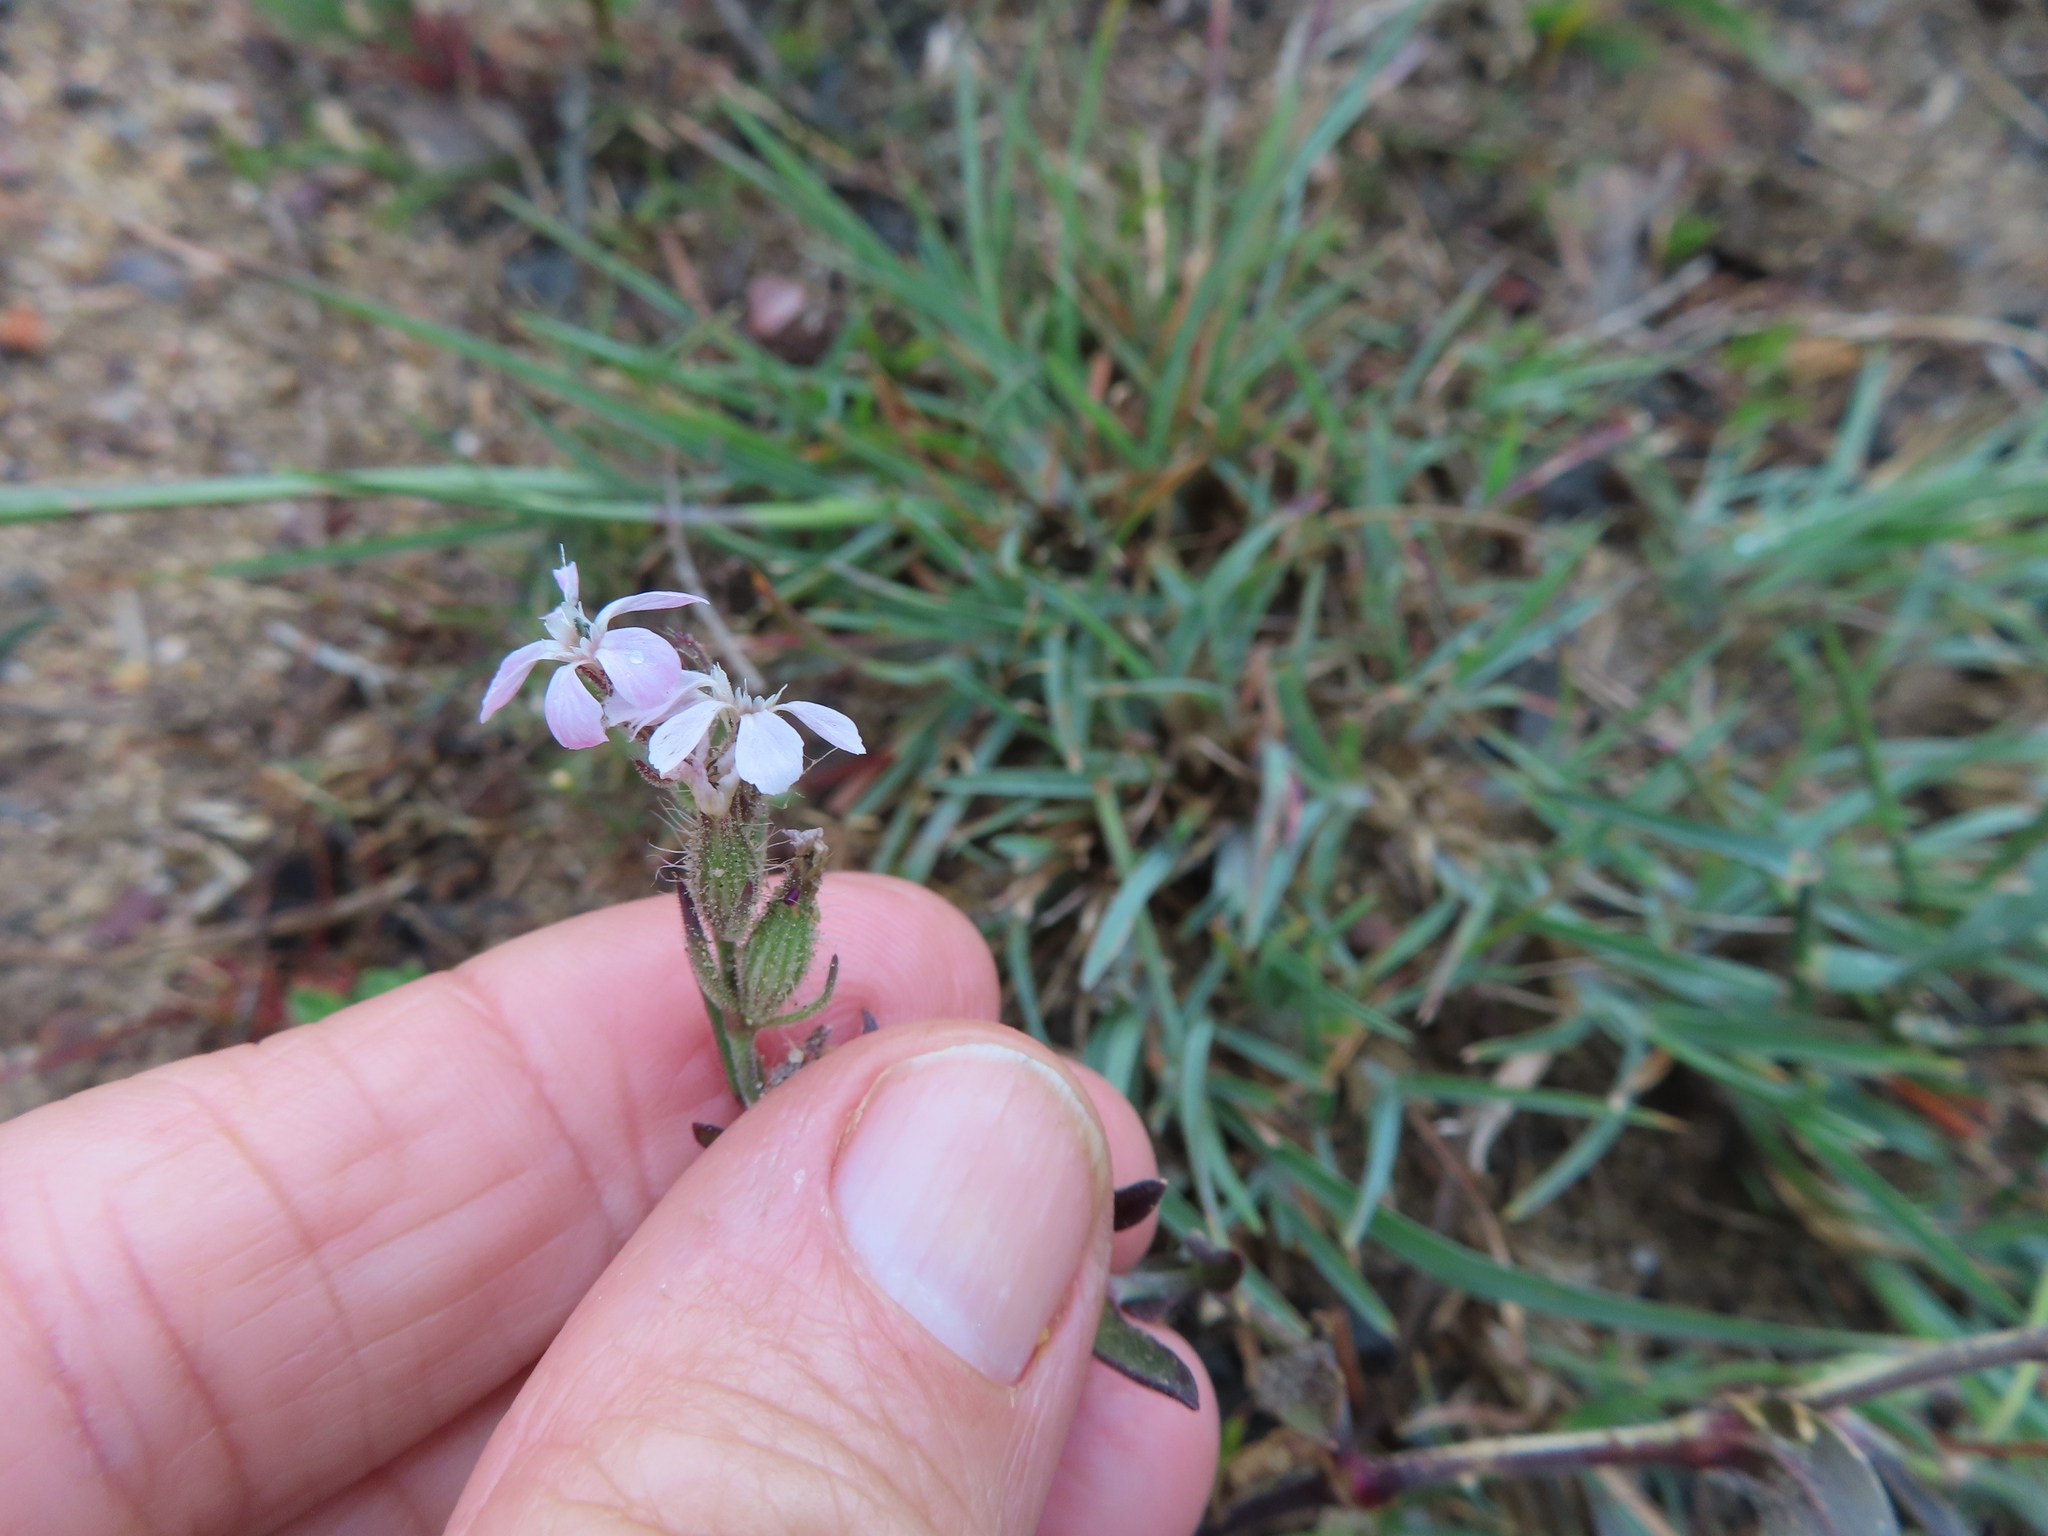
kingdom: Plantae
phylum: Tracheophyta
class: Magnoliopsida
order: Caryophyllales
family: Caryophyllaceae
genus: Silene
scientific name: Silene gallica
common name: Small-flowered catchfly
